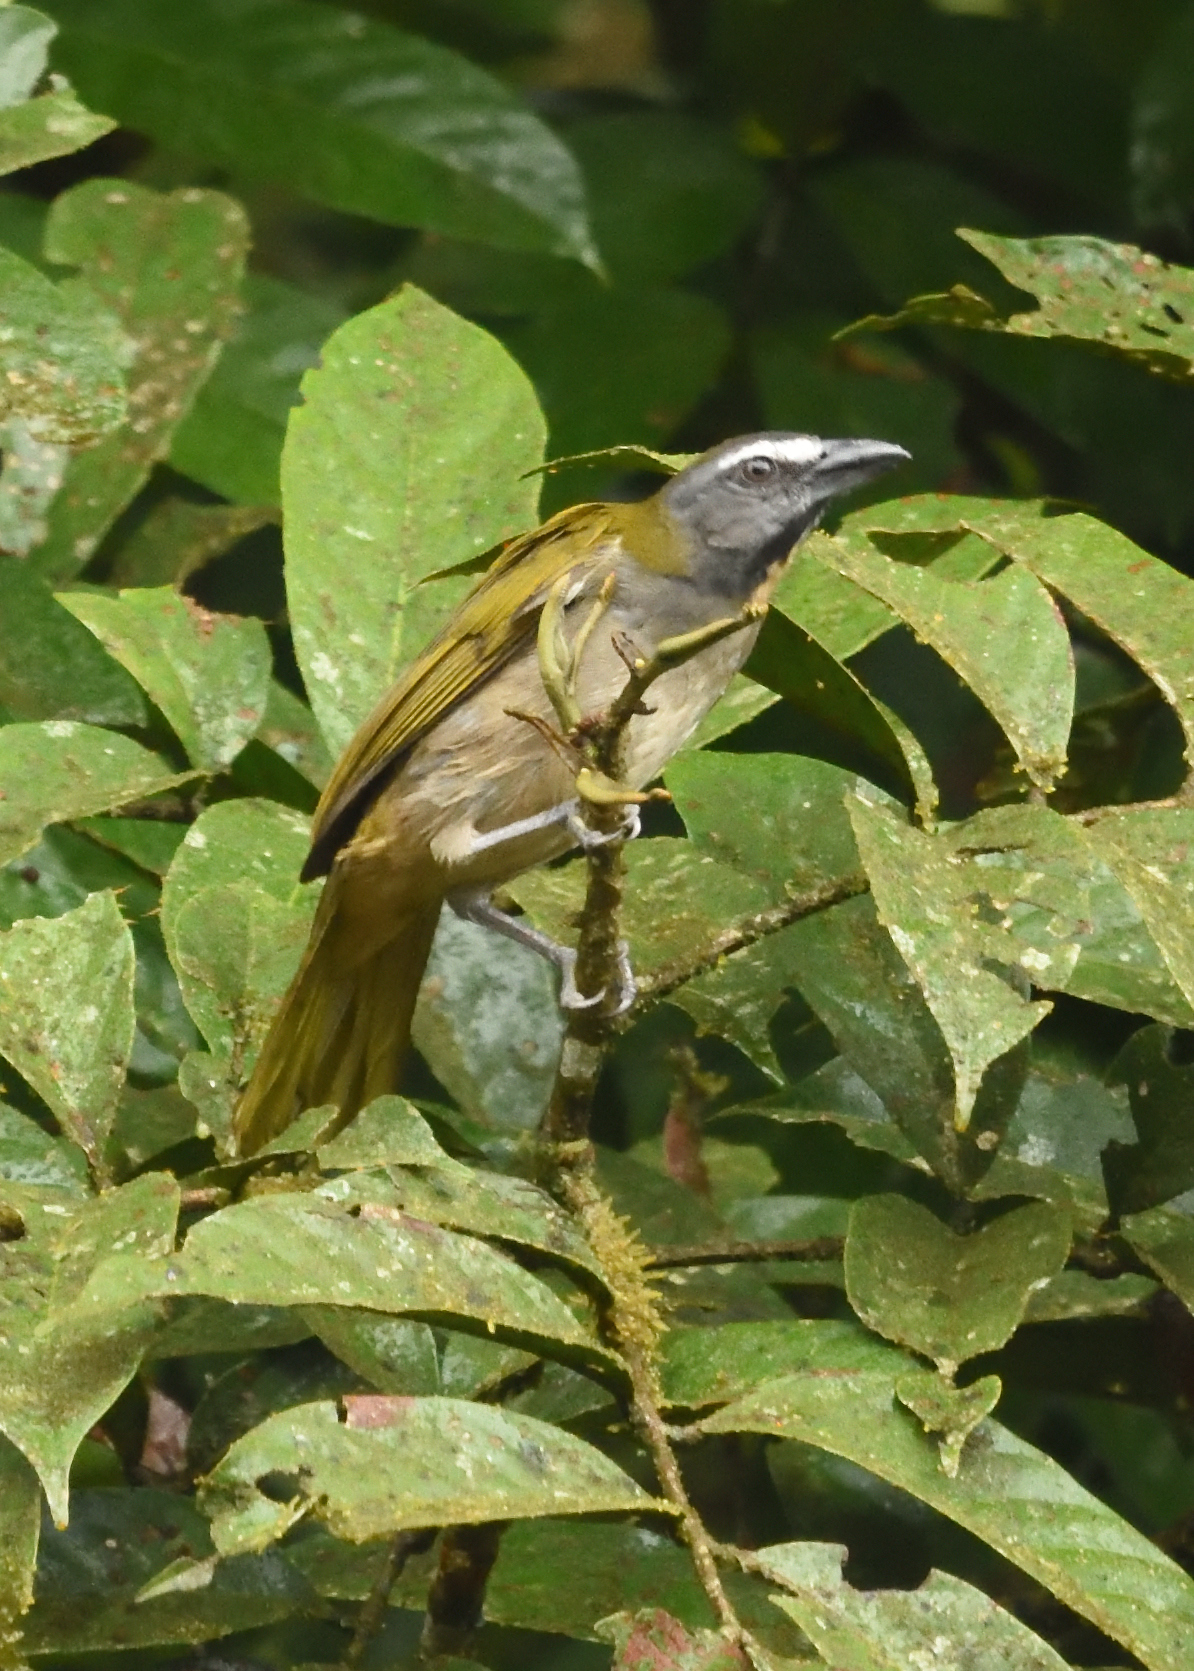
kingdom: Animalia
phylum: Chordata
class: Aves
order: Passeriformes
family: Thraupidae
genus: Saltator
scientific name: Saltator maximus
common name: Buff-throated saltator
